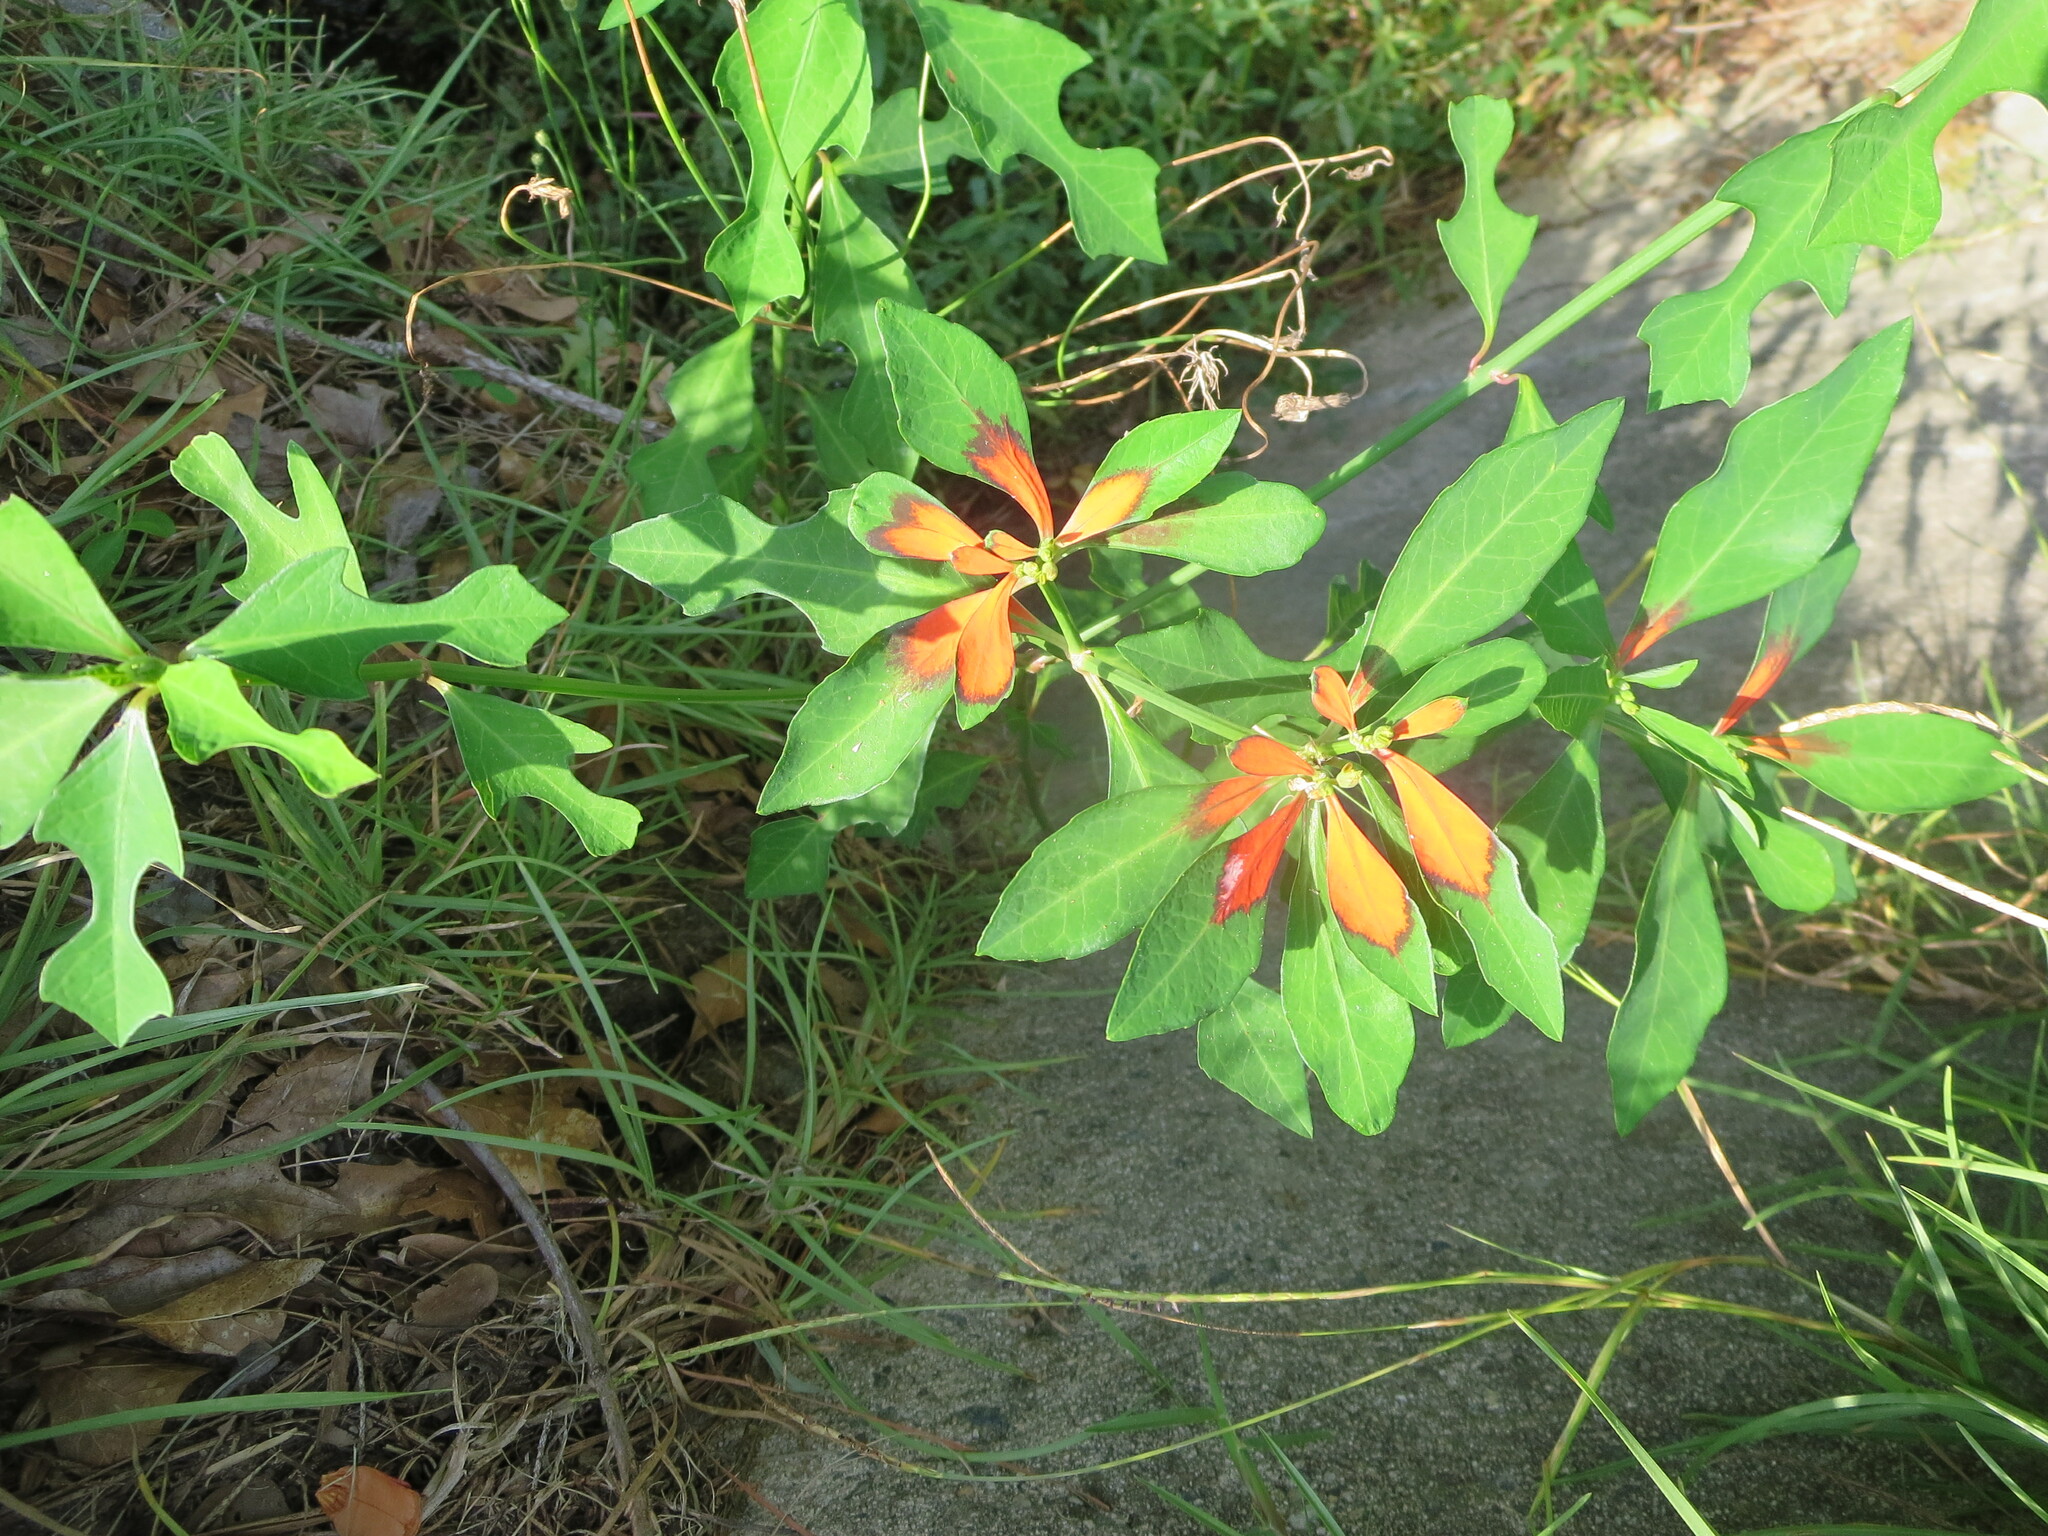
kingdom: Plantae
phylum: Tracheophyta
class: Magnoliopsida
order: Malpighiales
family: Euphorbiaceae
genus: Euphorbia
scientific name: Euphorbia heterophylla
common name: Mexican fireplant
